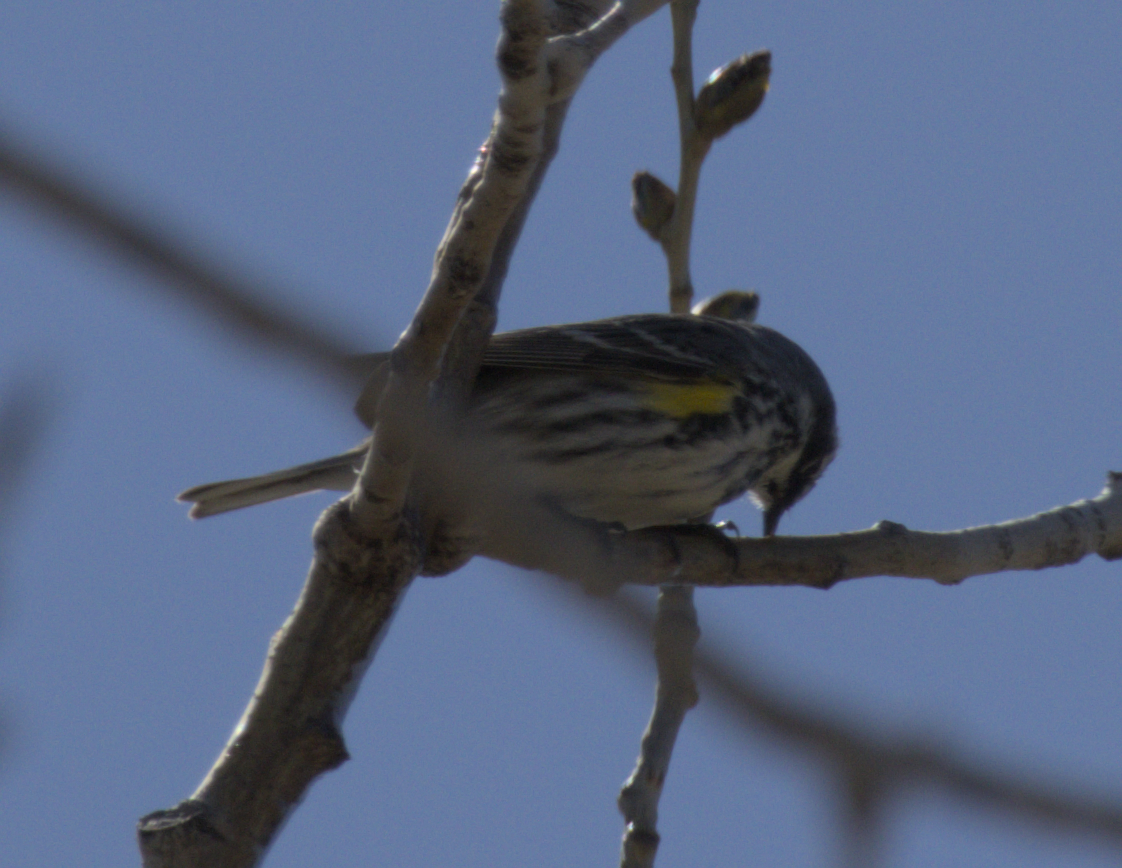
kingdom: Animalia
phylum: Chordata
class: Aves
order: Passeriformes
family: Parulidae
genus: Setophaga
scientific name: Setophaga coronata
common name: Myrtle warbler
